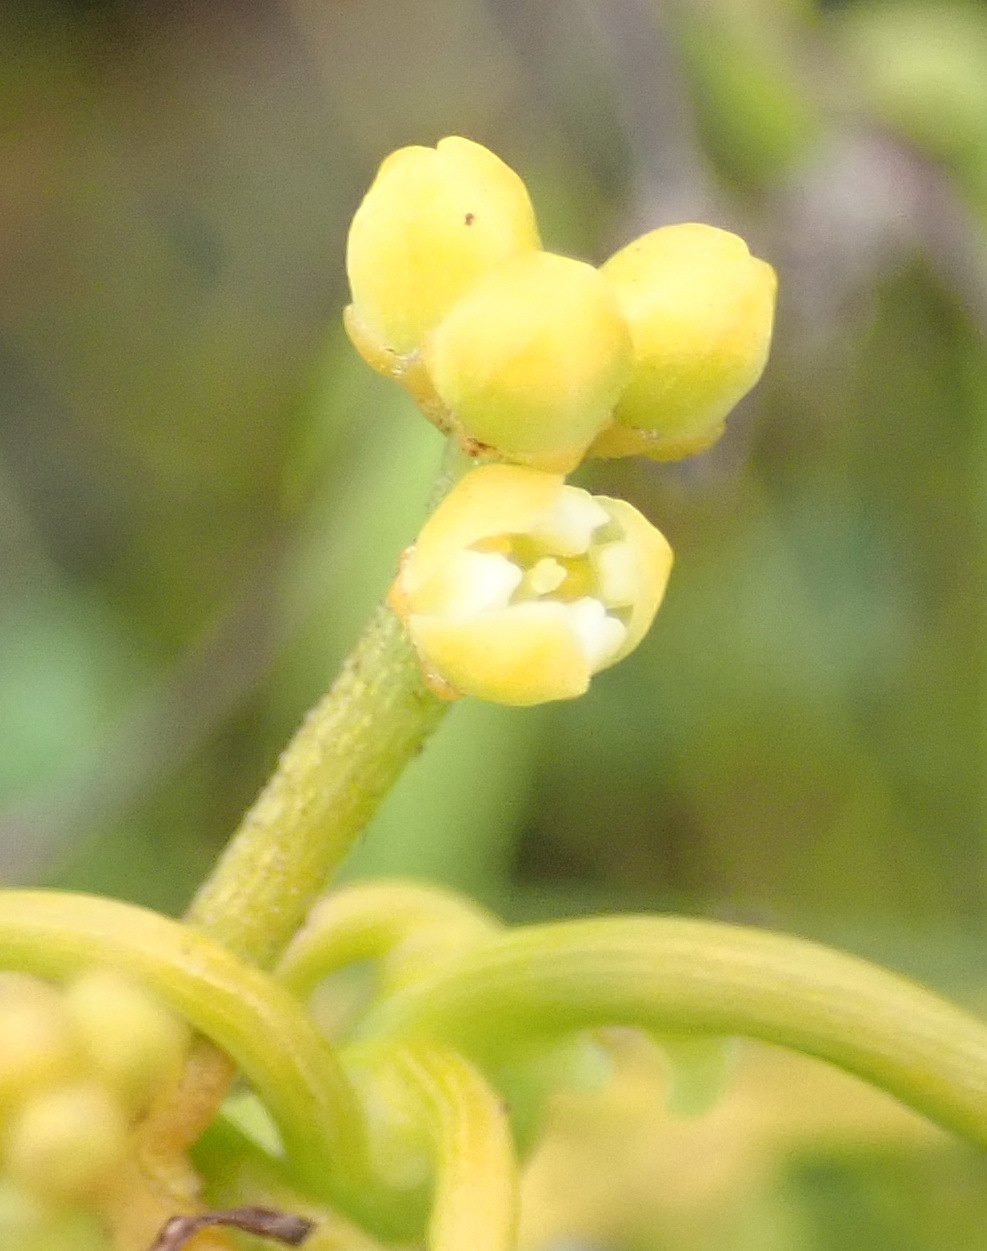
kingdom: Plantae
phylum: Tracheophyta
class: Magnoliopsida
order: Laurales
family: Lauraceae
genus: Cassytha
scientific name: Cassytha ciliolata
